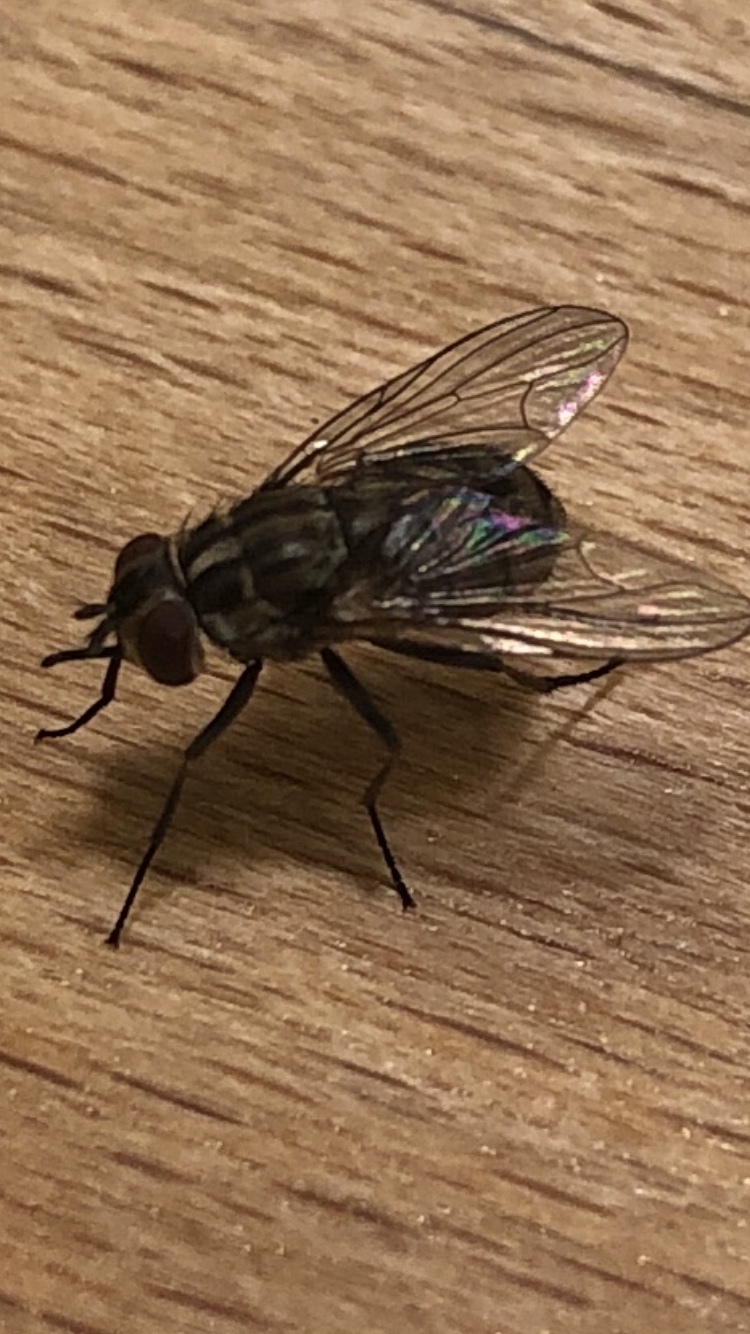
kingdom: Animalia
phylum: Arthropoda
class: Insecta
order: Diptera
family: Muscidae
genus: Stomoxys
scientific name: Stomoxys calcitrans
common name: Stable fly
